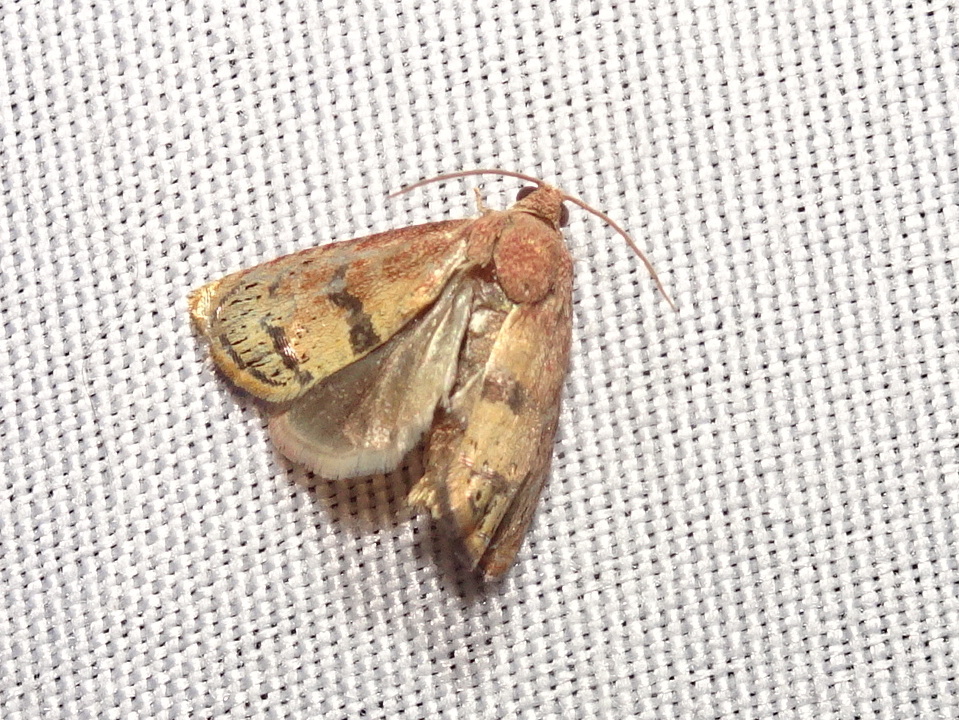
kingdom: Animalia
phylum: Arthropoda
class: Insecta
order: Lepidoptera
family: Tortricidae
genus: Cydia
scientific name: Cydia latiferreana
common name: Filbertworm moth
